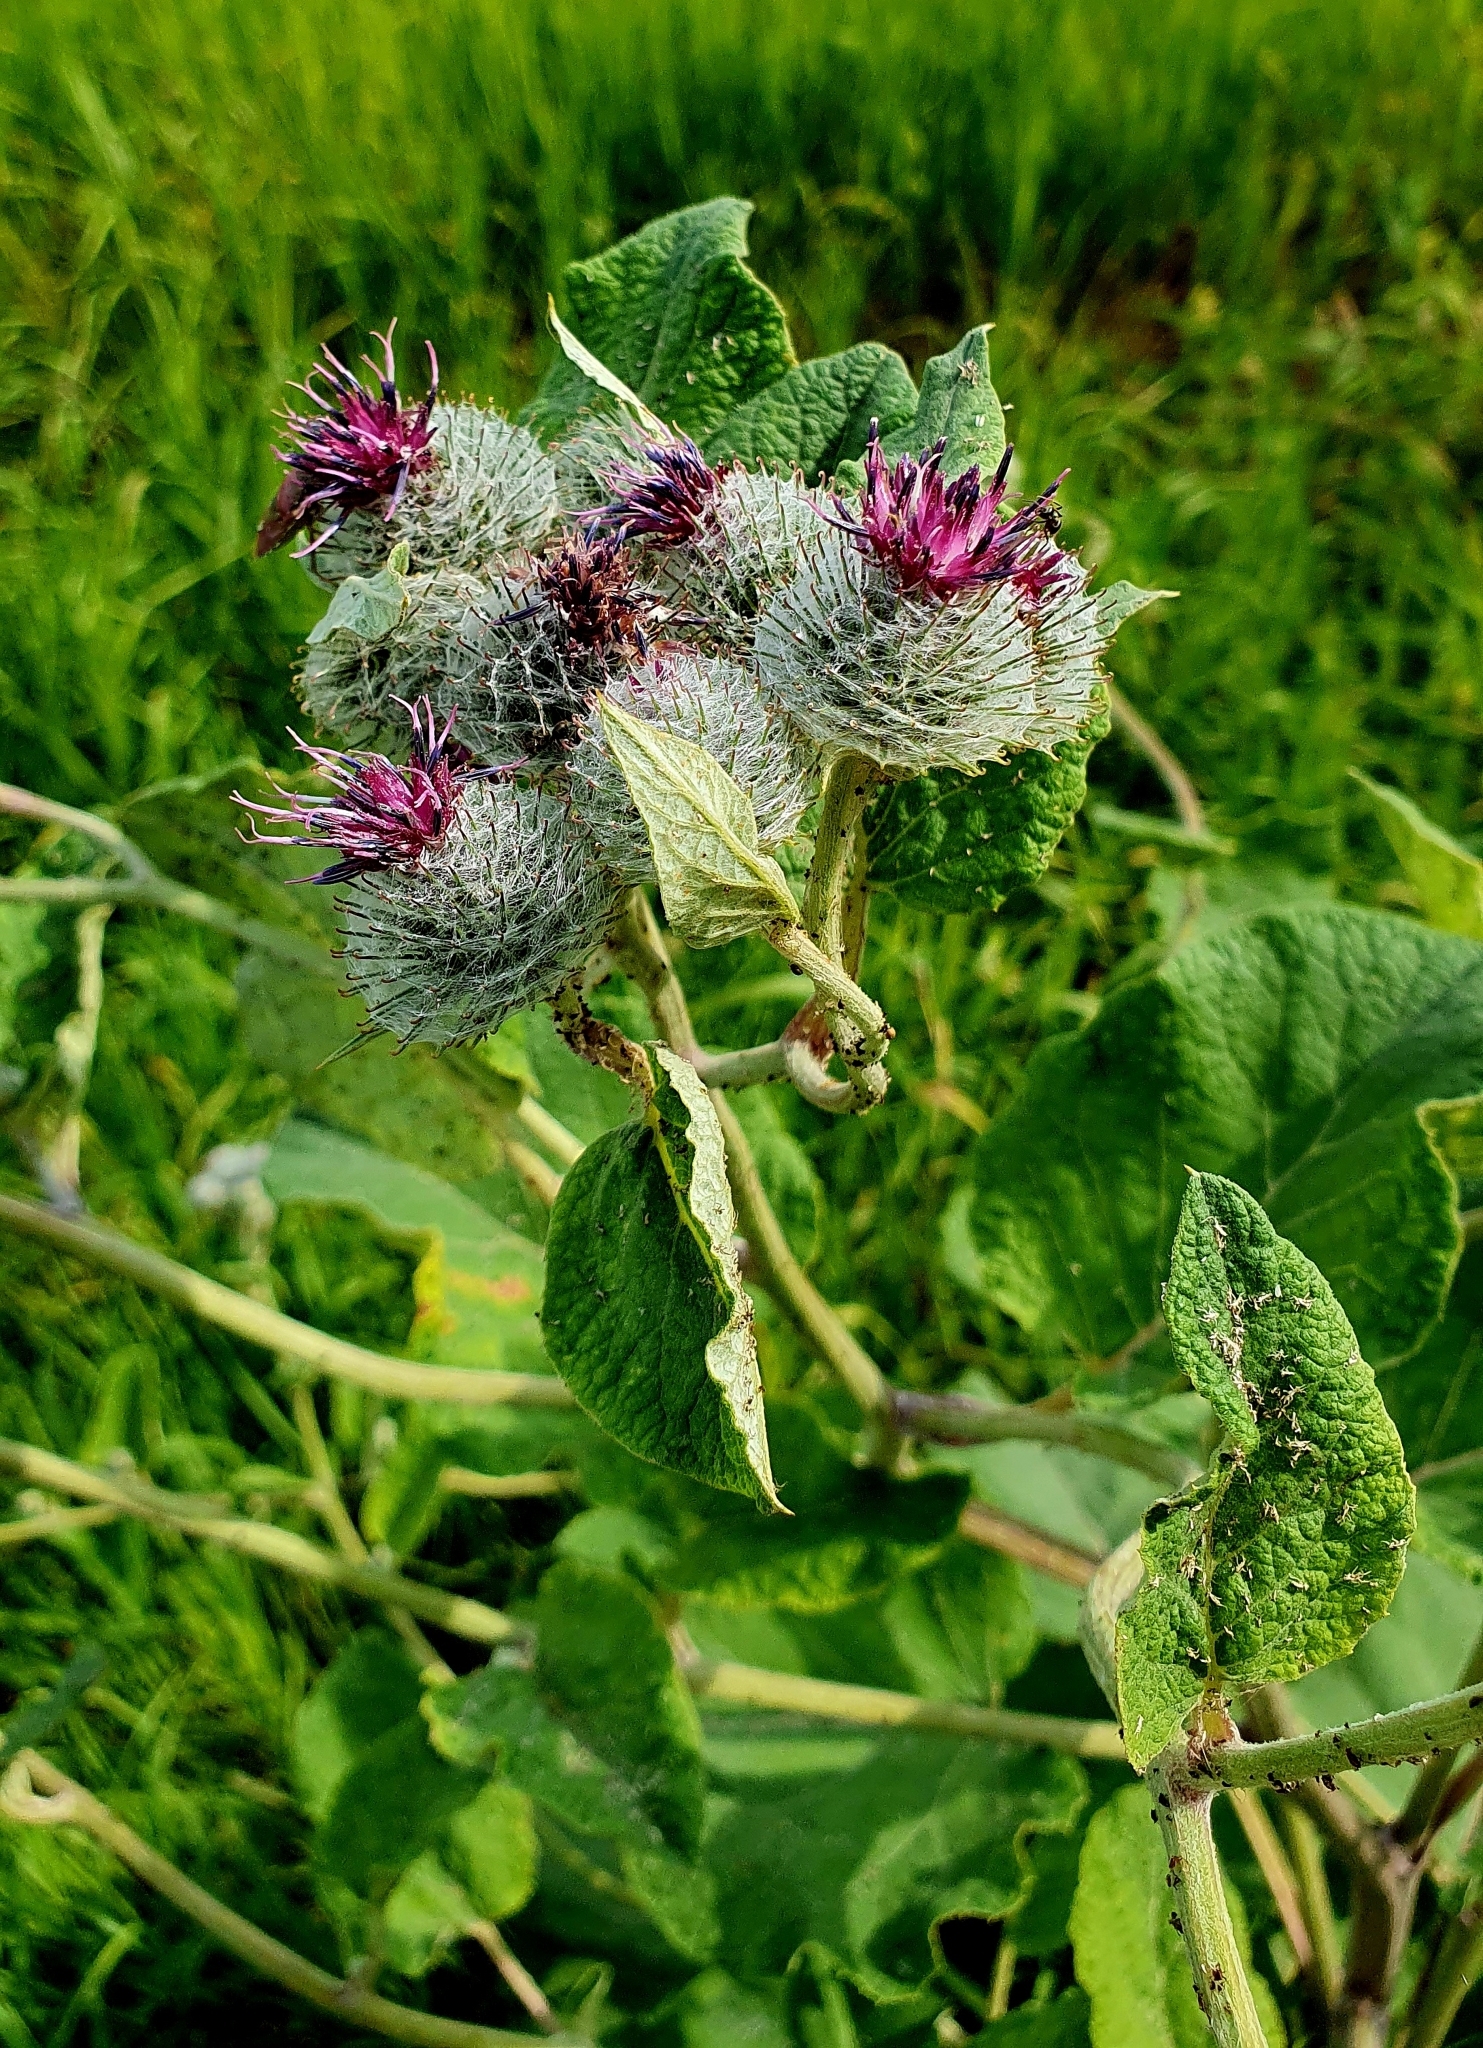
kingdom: Plantae
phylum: Tracheophyta
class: Magnoliopsida
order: Asterales
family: Asteraceae
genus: Arctium
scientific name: Arctium tomentosum
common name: Woolly burdock
